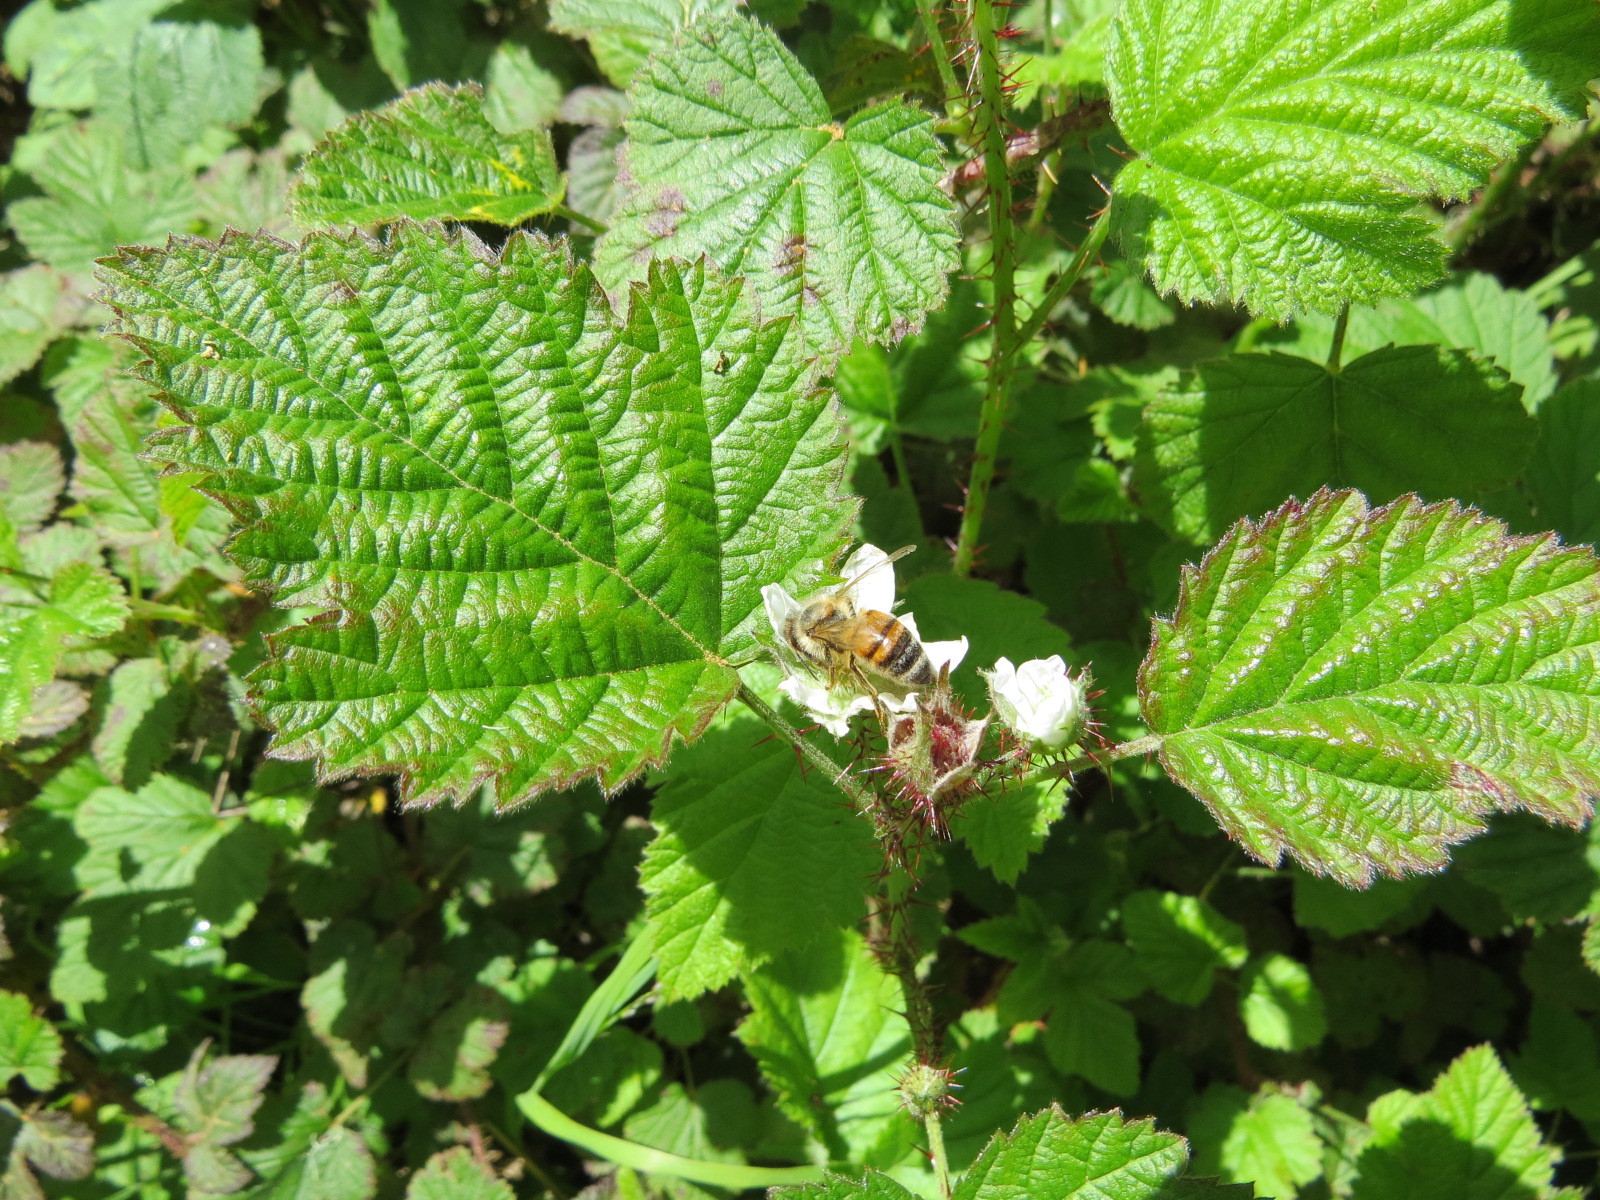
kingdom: Animalia
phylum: Arthropoda
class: Insecta
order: Hymenoptera
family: Apidae
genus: Apis
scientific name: Apis mellifera
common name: Honey bee
